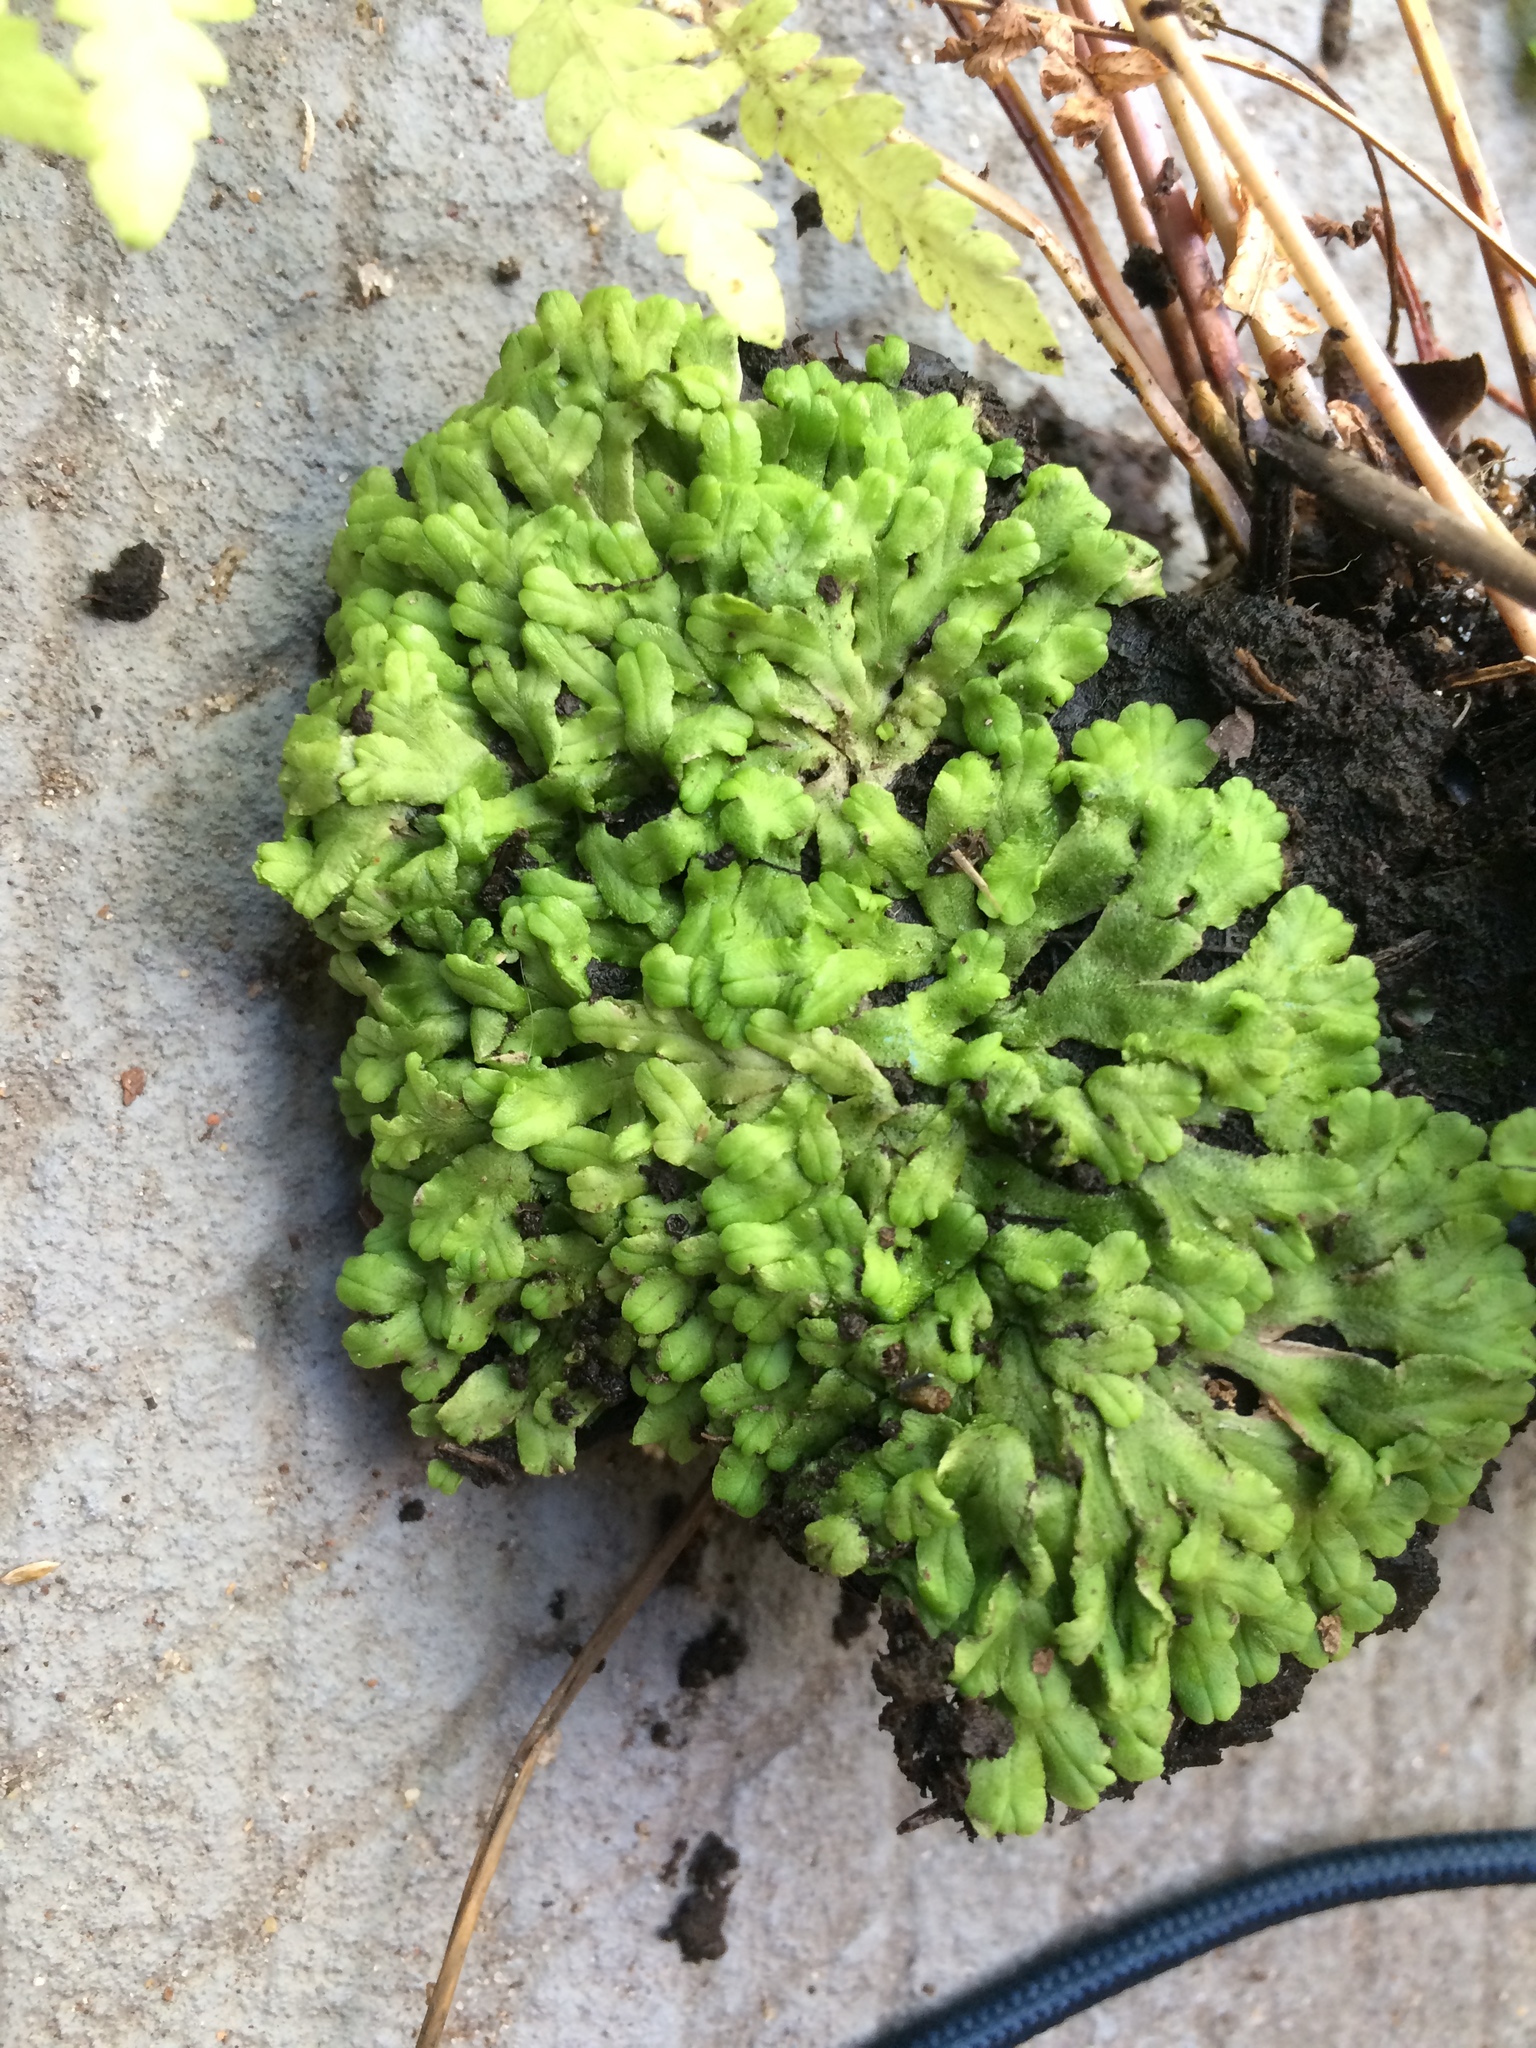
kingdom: Plantae
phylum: Marchantiophyta
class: Marchantiopsida
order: Marchantiales
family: Ricciaceae
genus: Ricciocarpos
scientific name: Ricciocarpos natans
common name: Purple-fringed liverwort
